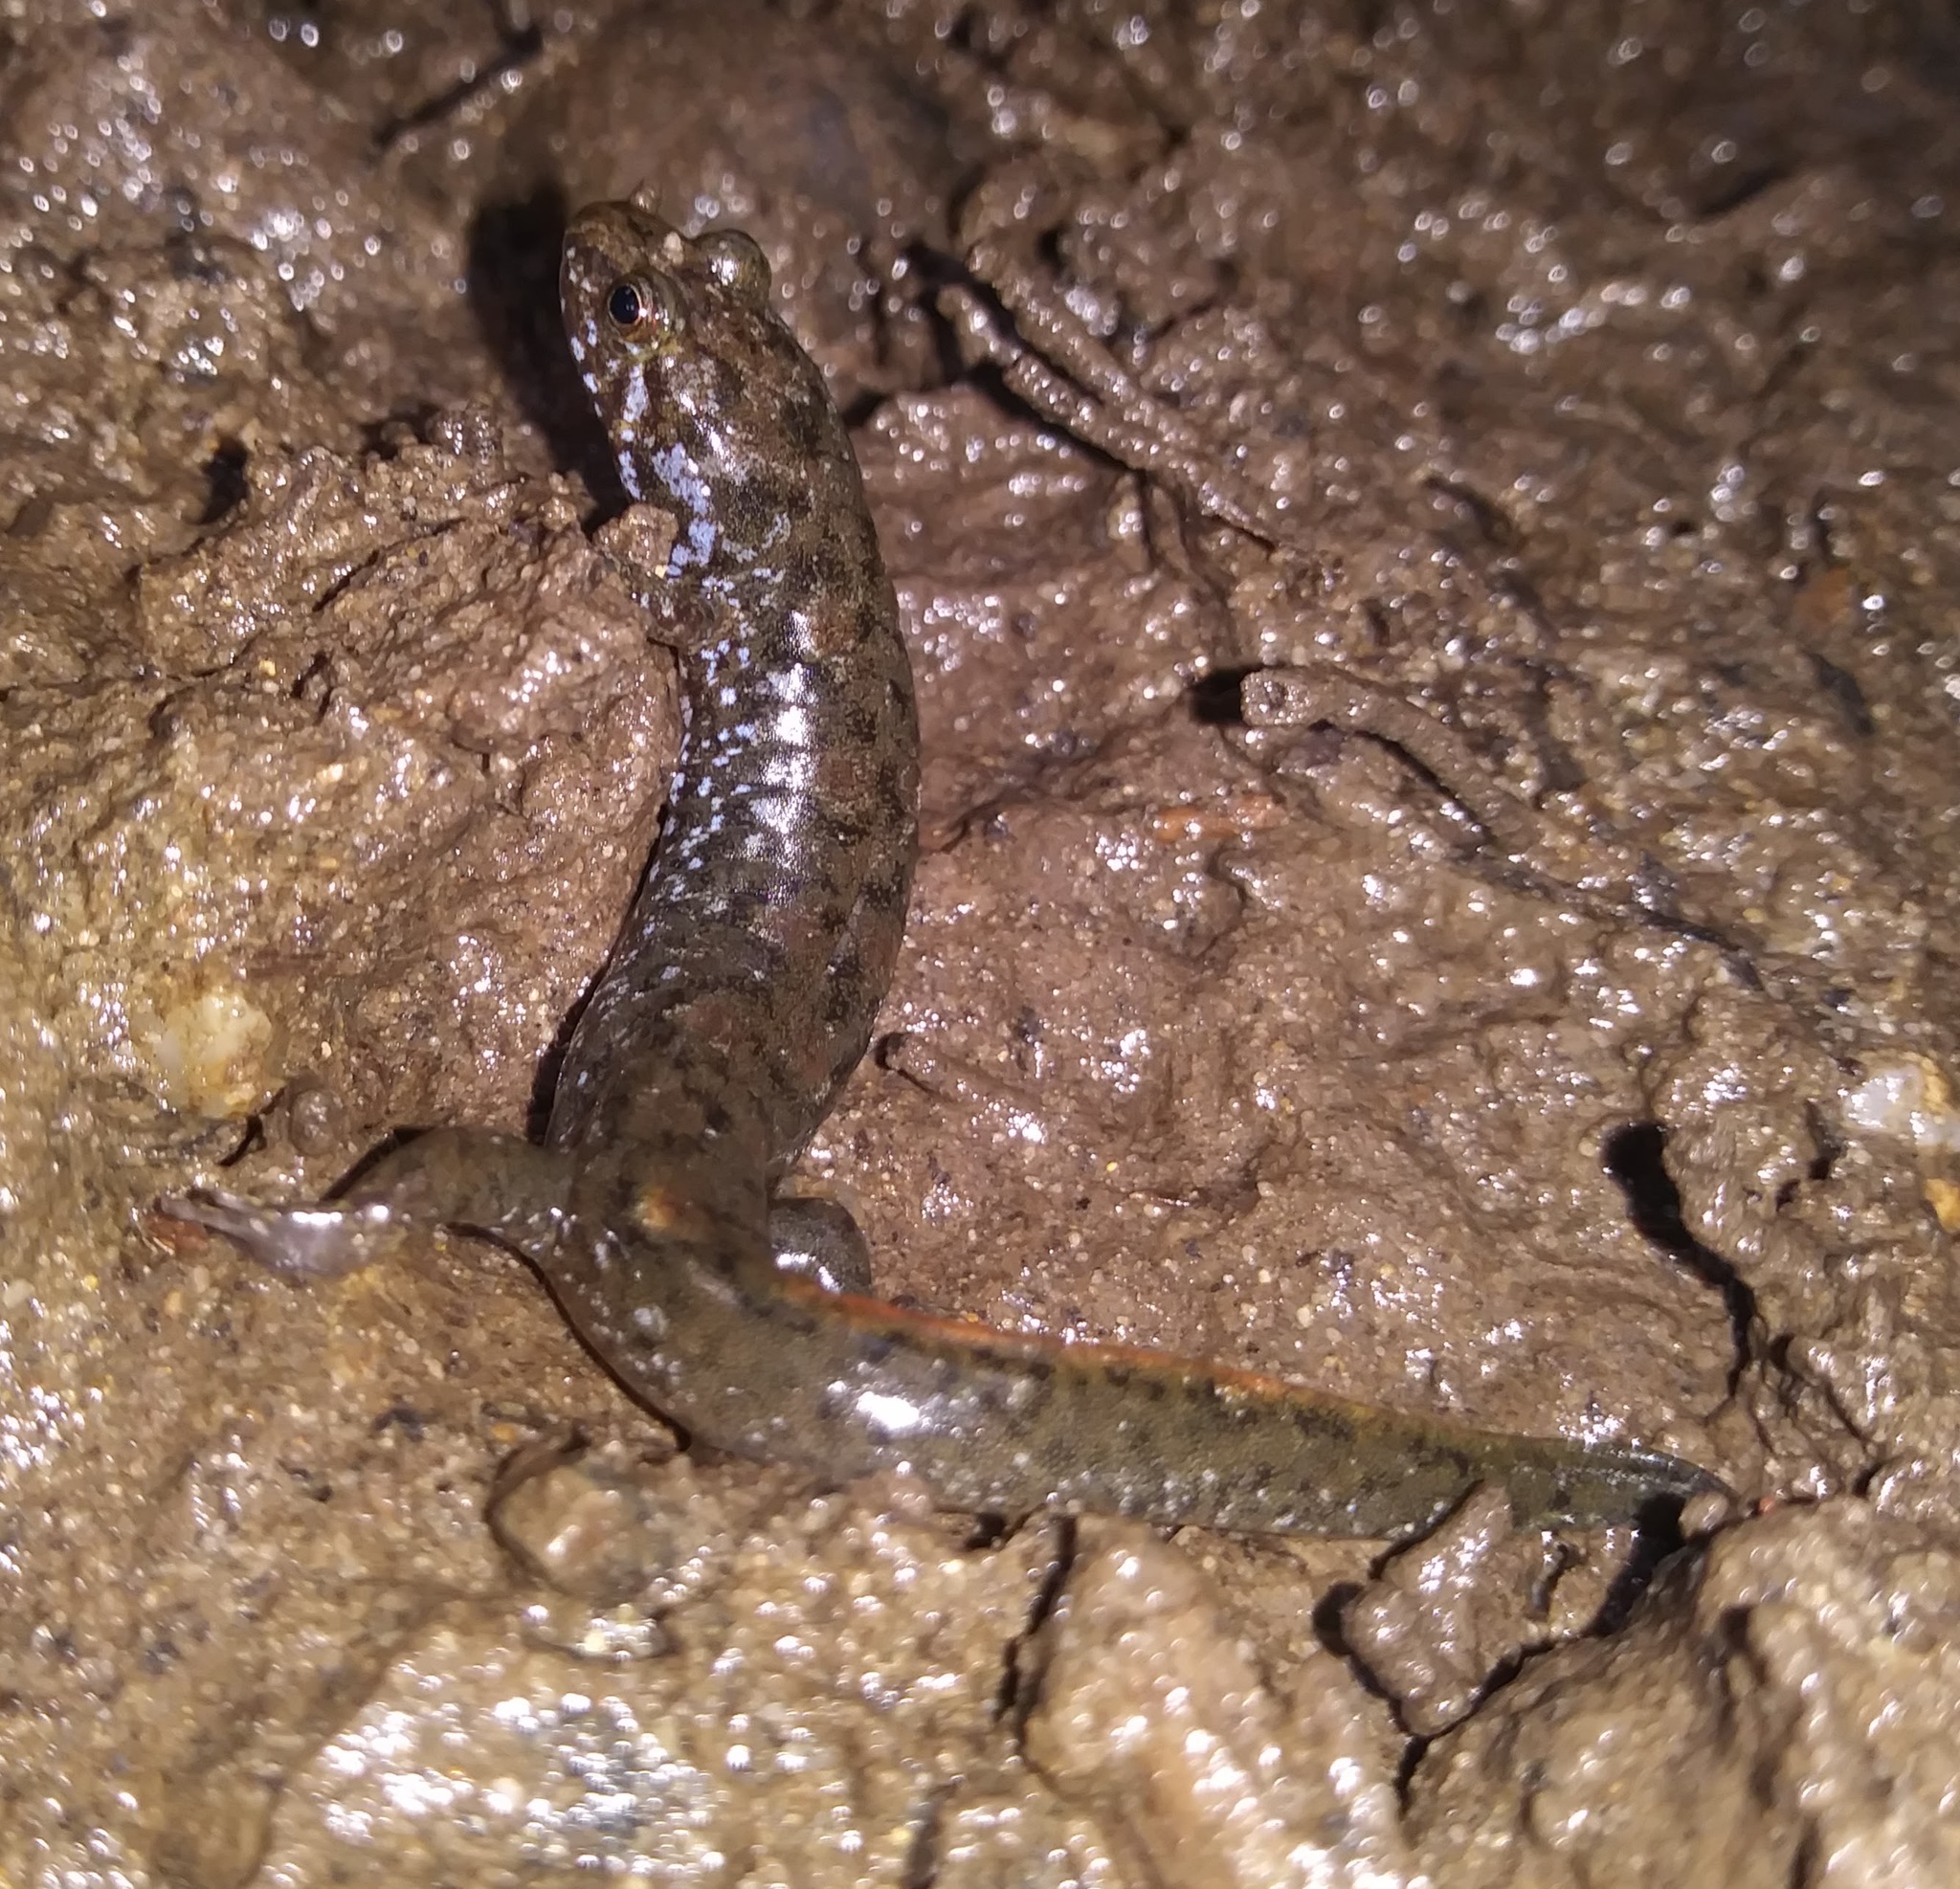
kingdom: Animalia
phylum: Chordata
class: Amphibia
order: Caudata
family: Plethodontidae
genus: Desmognathus
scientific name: Desmognathus monticola
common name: Seal salamander
